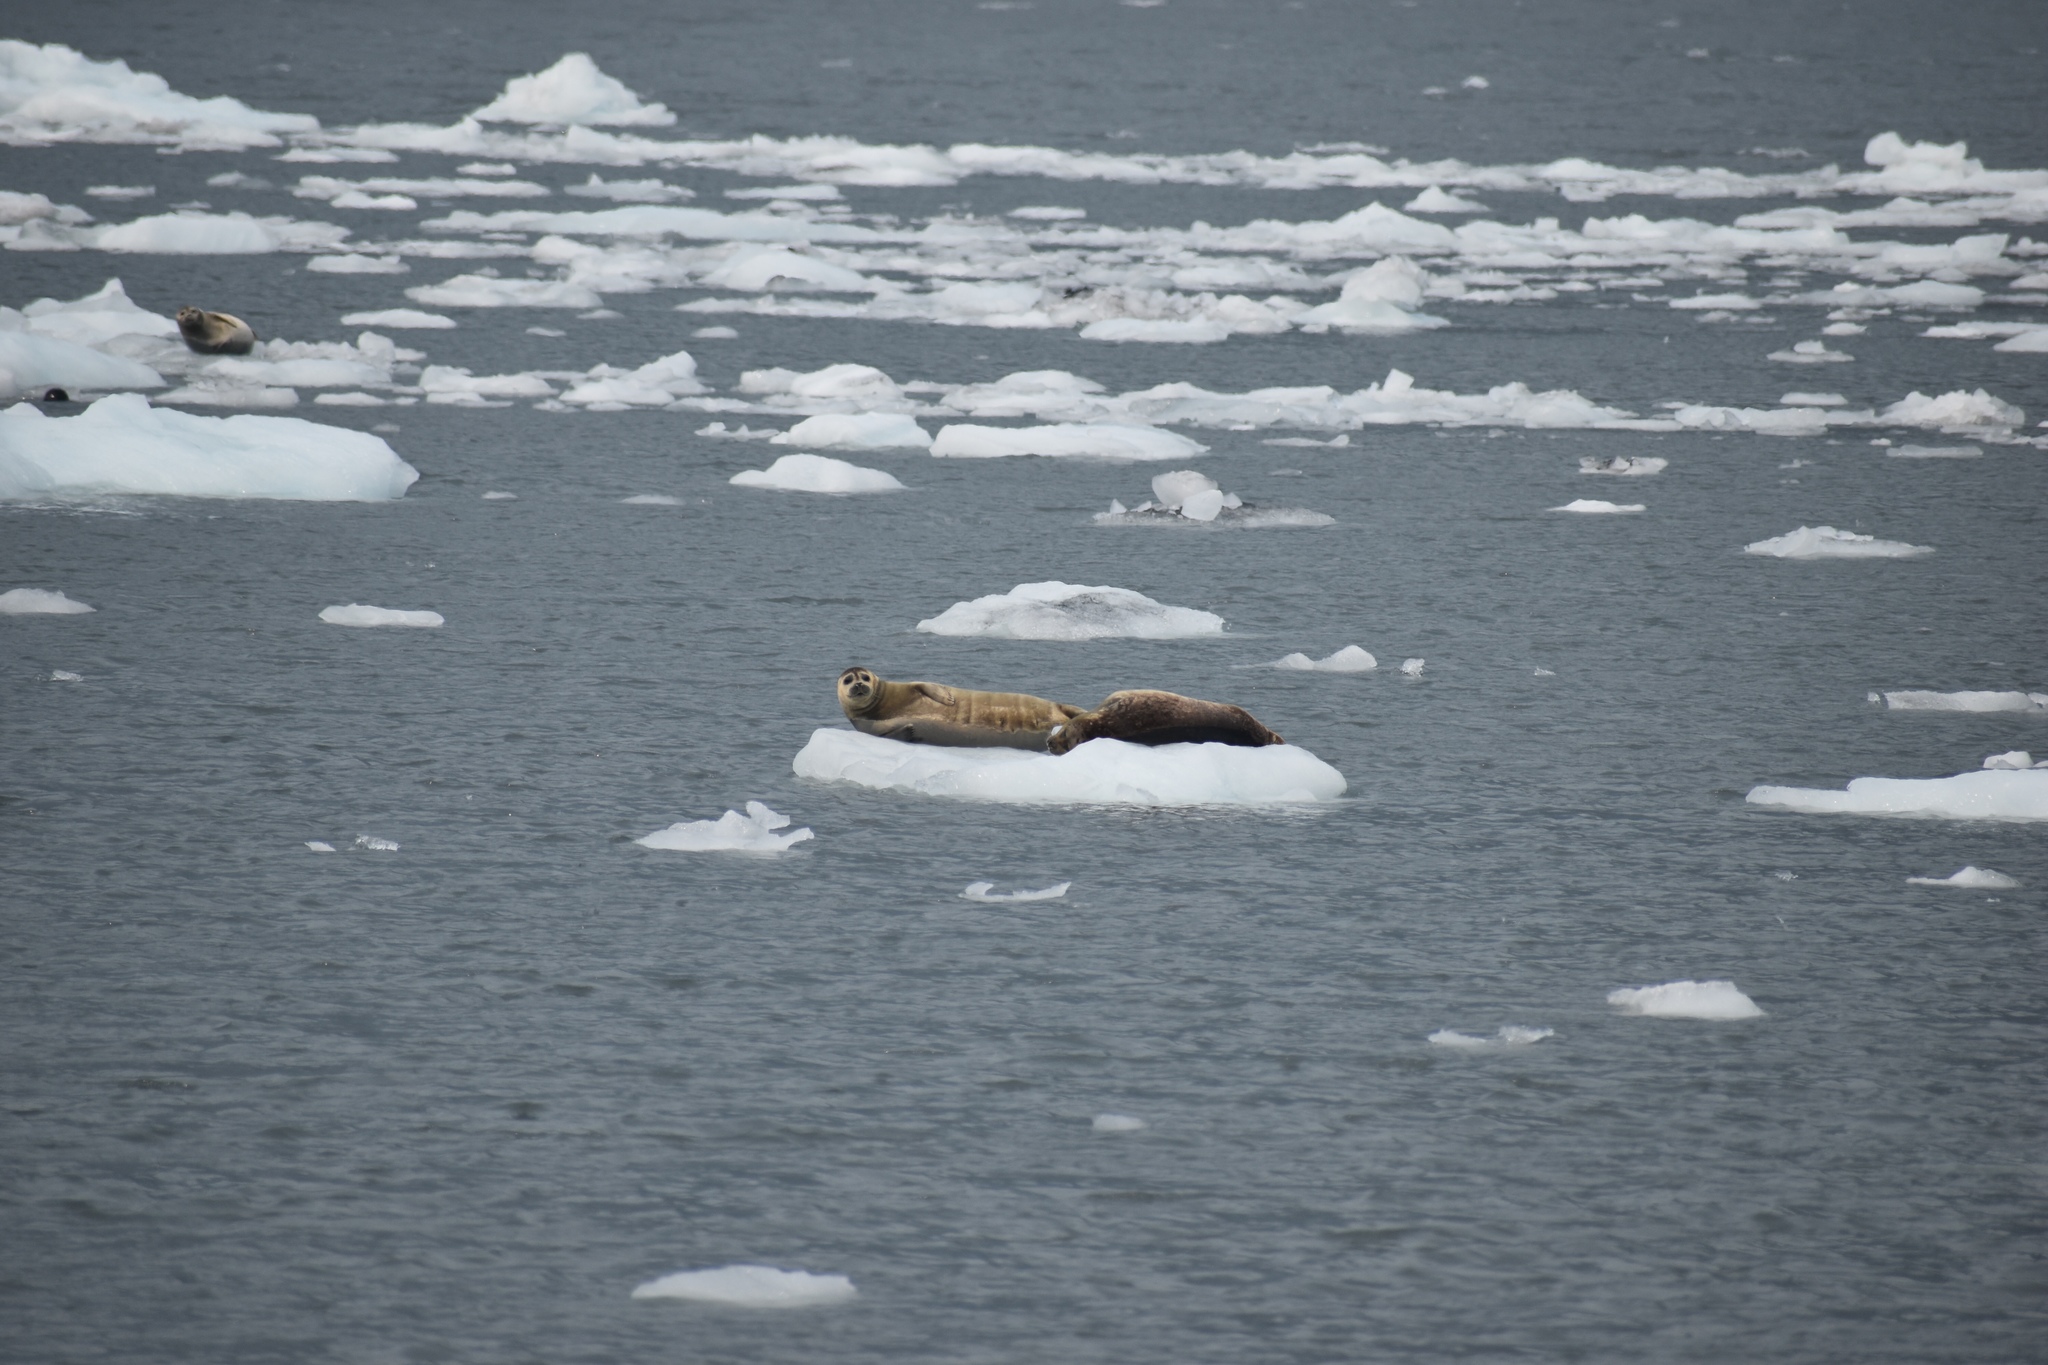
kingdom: Animalia
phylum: Chordata
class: Mammalia
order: Carnivora
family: Phocidae
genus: Phoca
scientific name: Phoca vitulina
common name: Harbor seal
